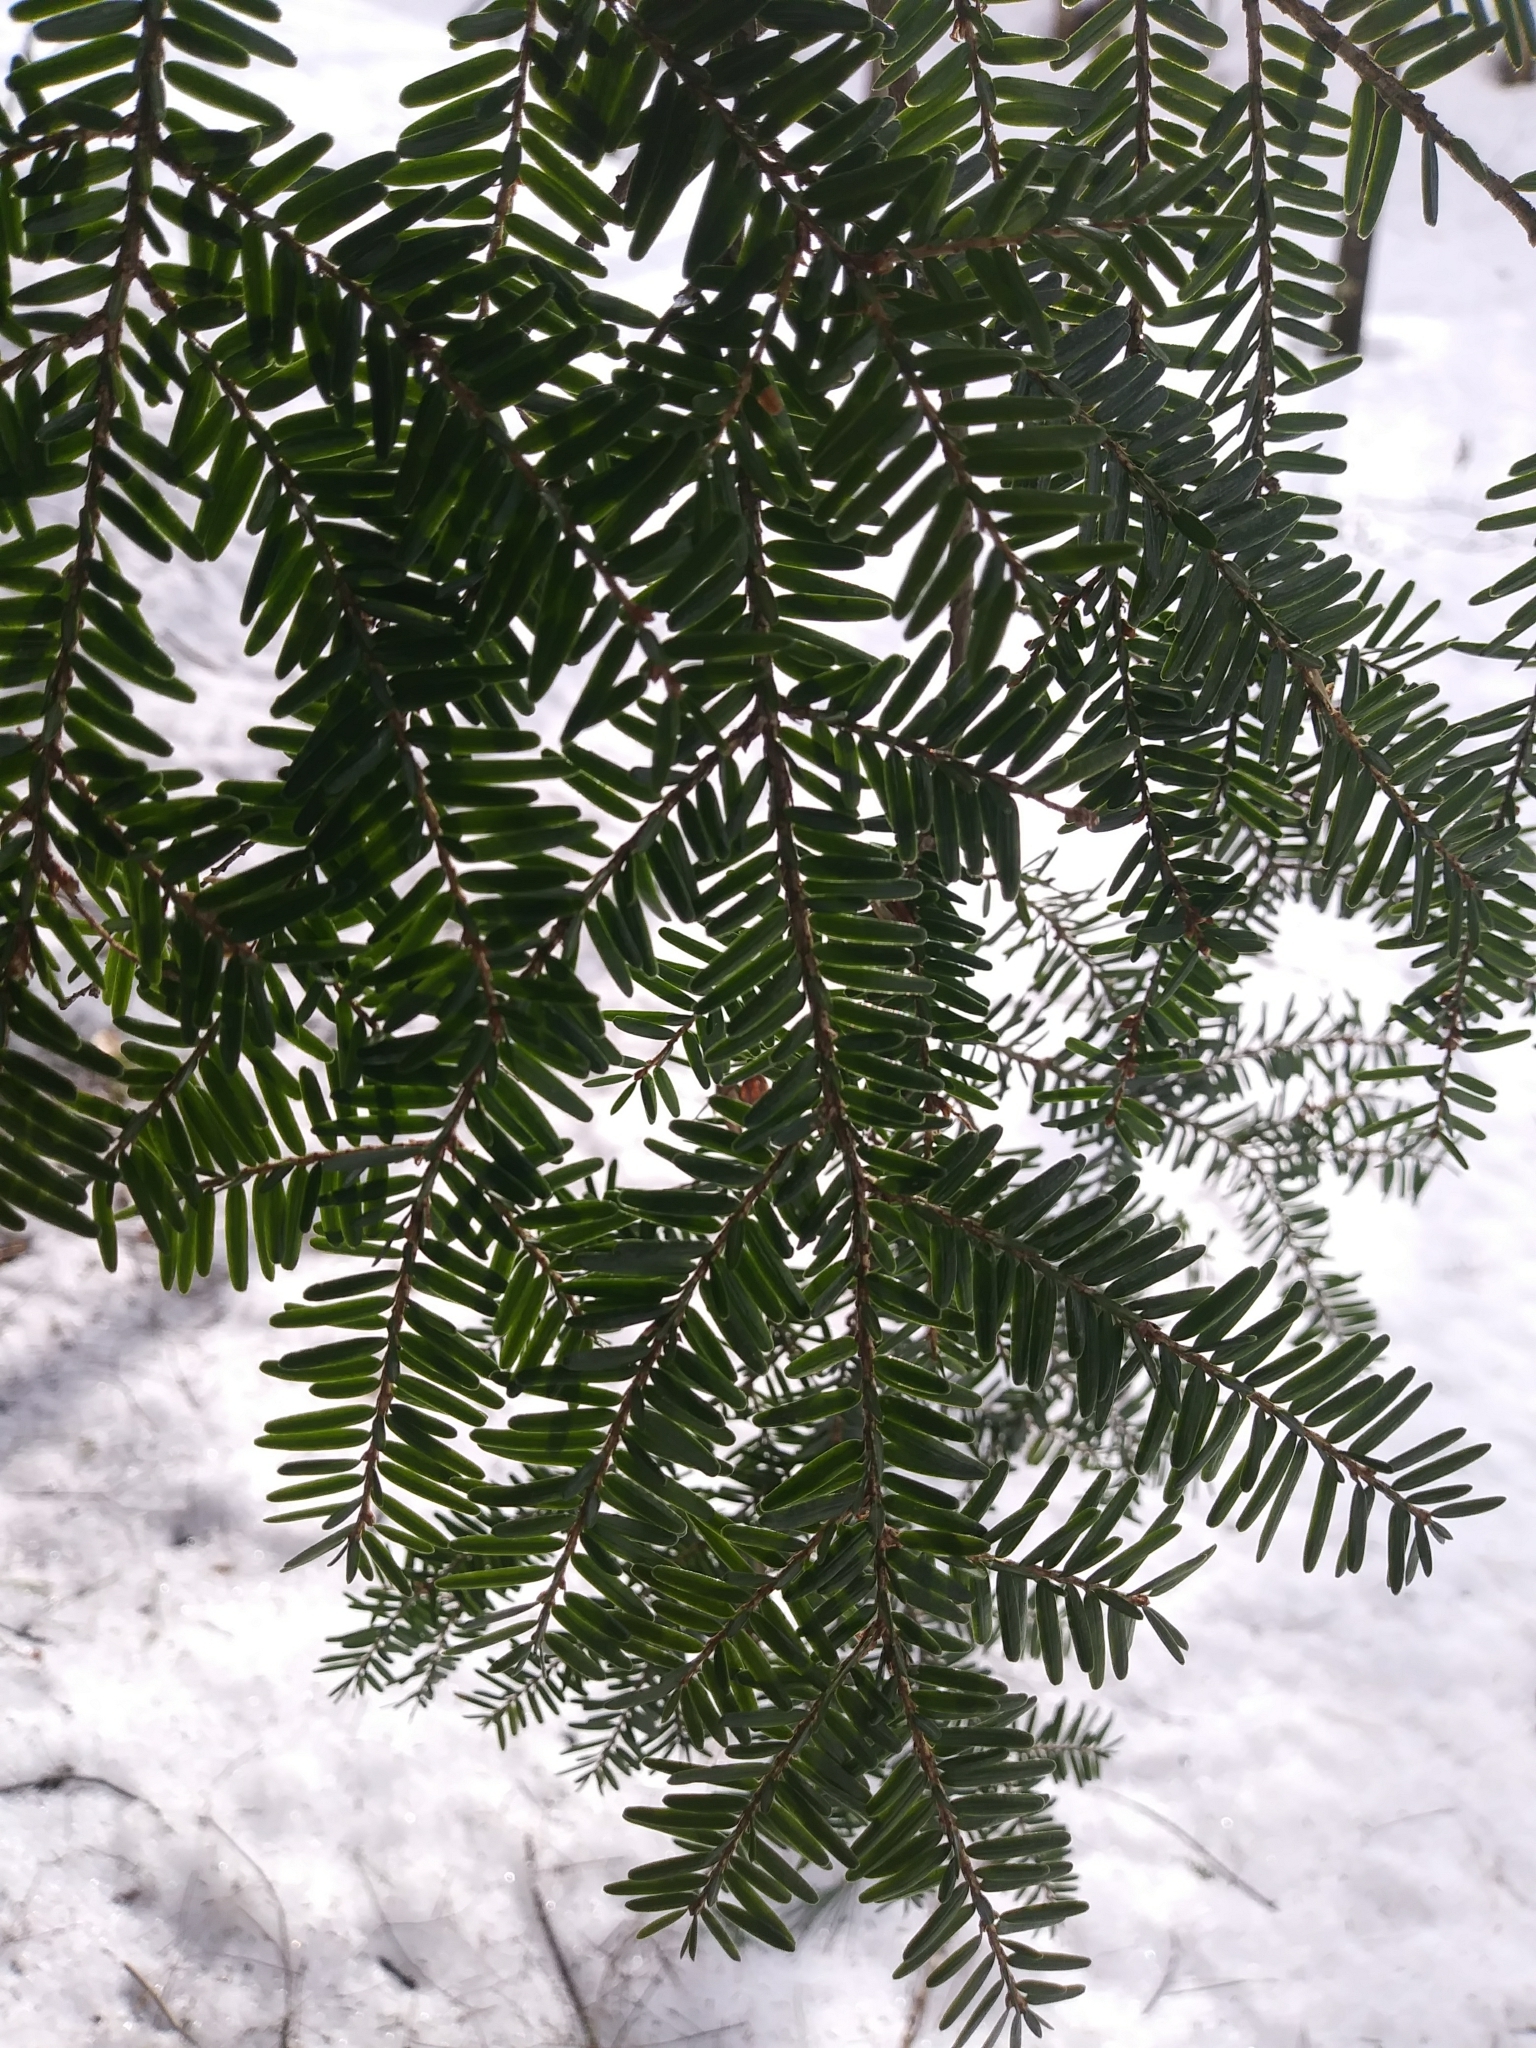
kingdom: Plantae
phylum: Tracheophyta
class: Pinopsida
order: Pinales
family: Pinaceae
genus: Tsuga
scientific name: Tsuga canadensis
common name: Eastern hemlock
